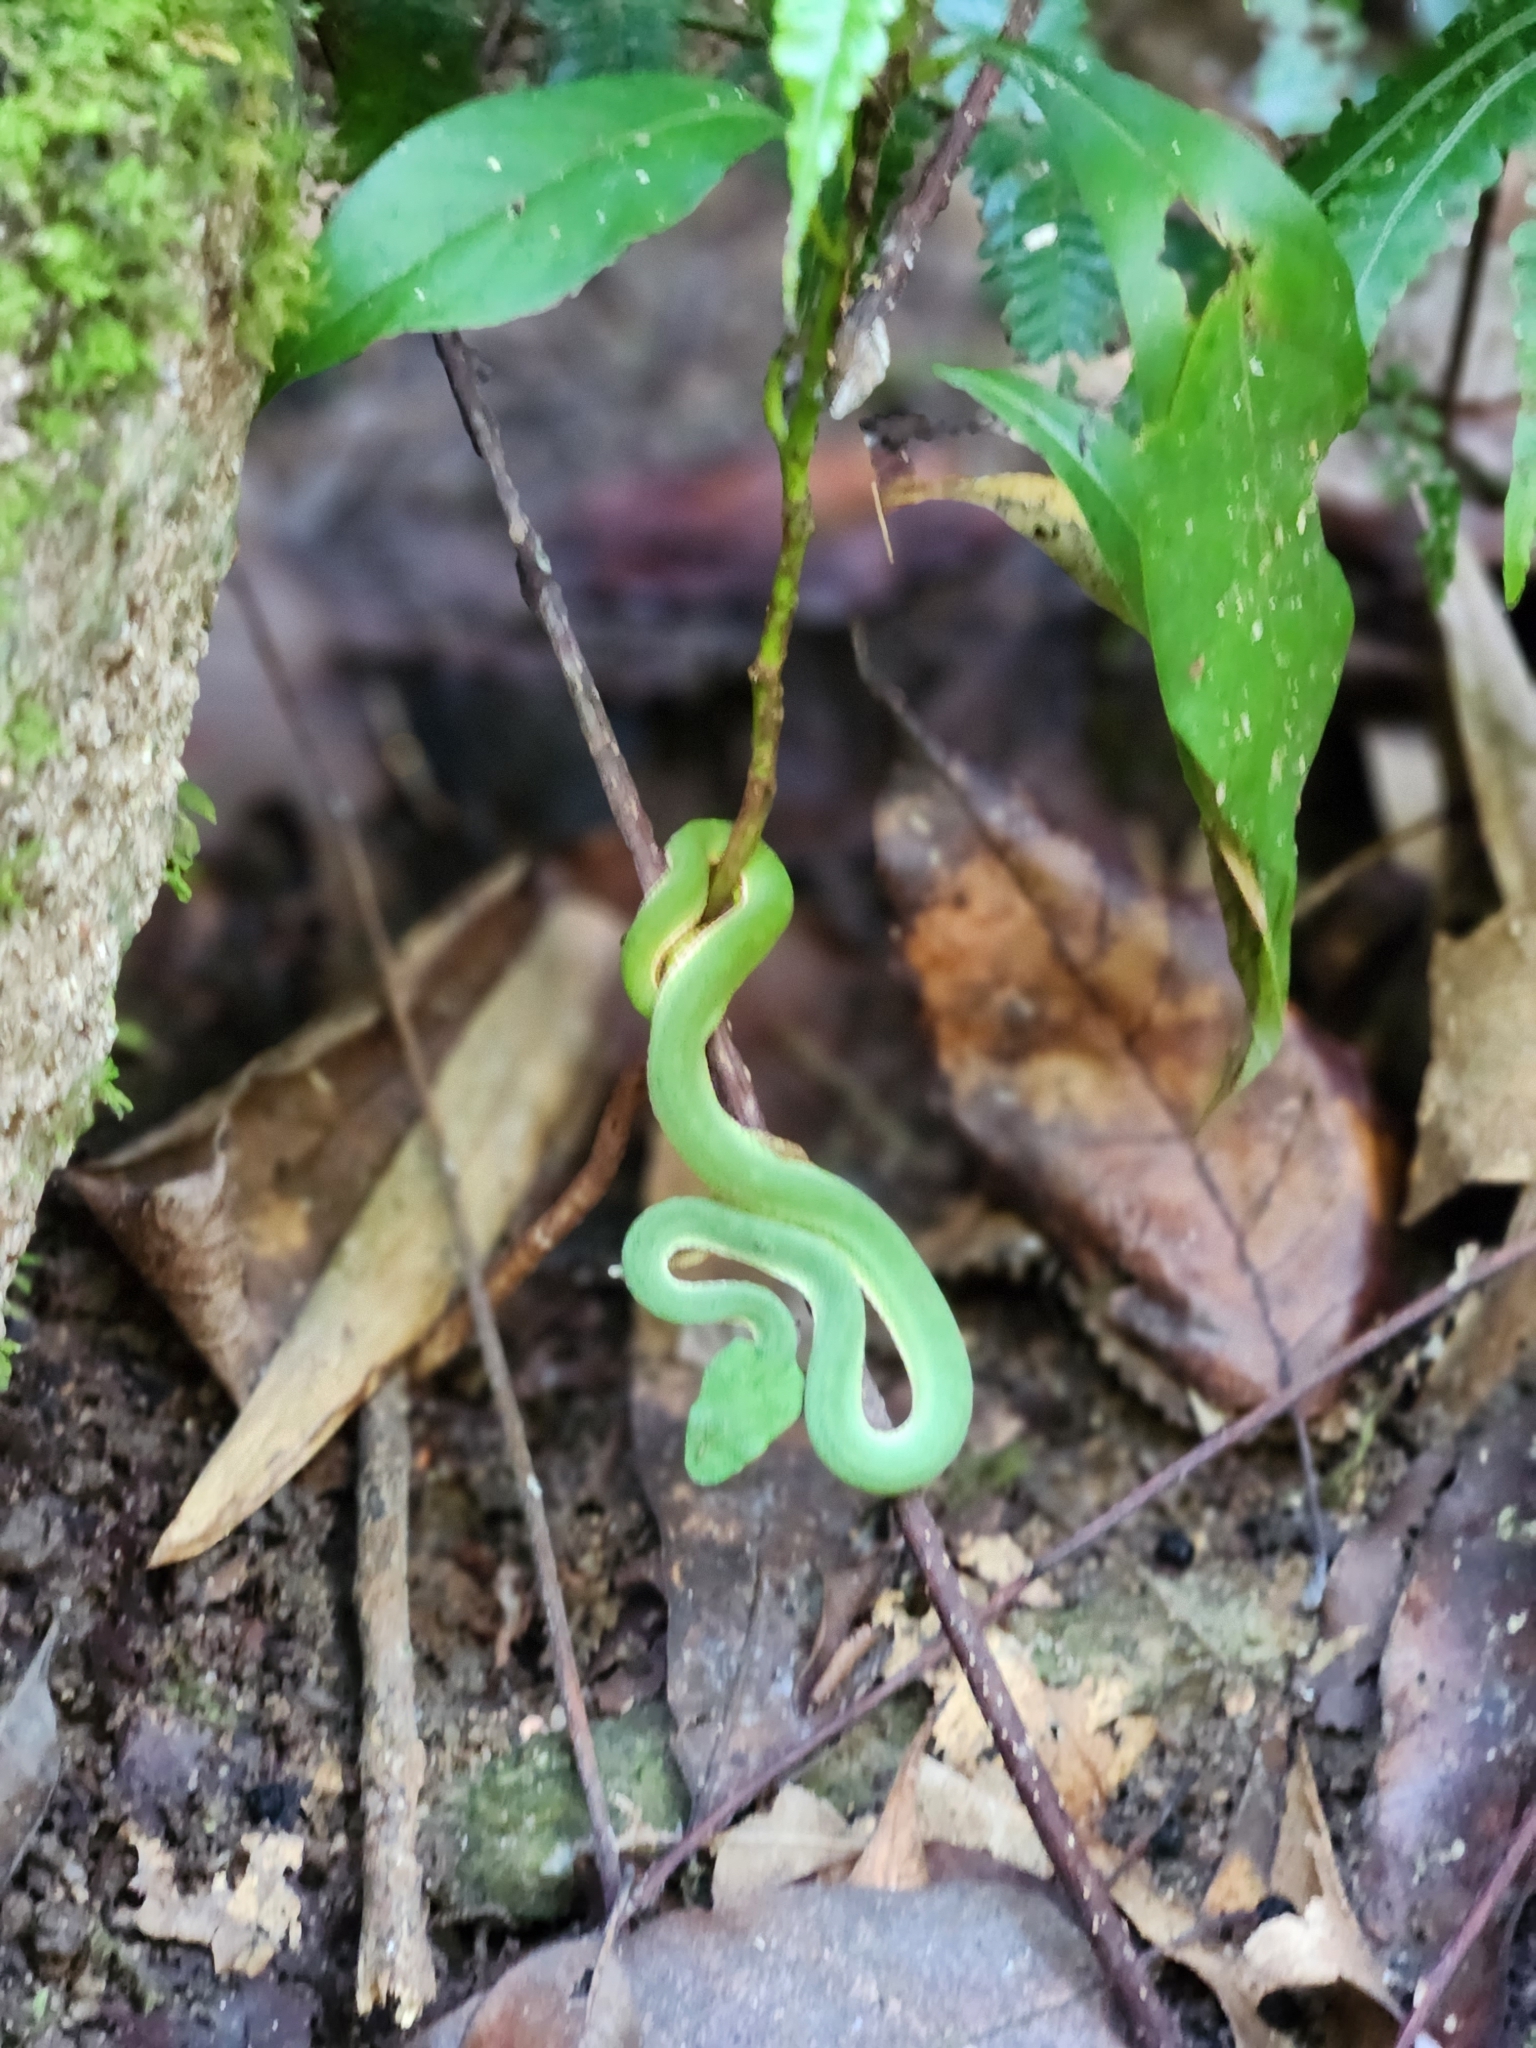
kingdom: Animalia
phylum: Chordata
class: Squamata
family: Viperidae
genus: Trimeresurus
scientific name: Trimeresurus popeiorum
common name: Pope's bamboo pit viper
